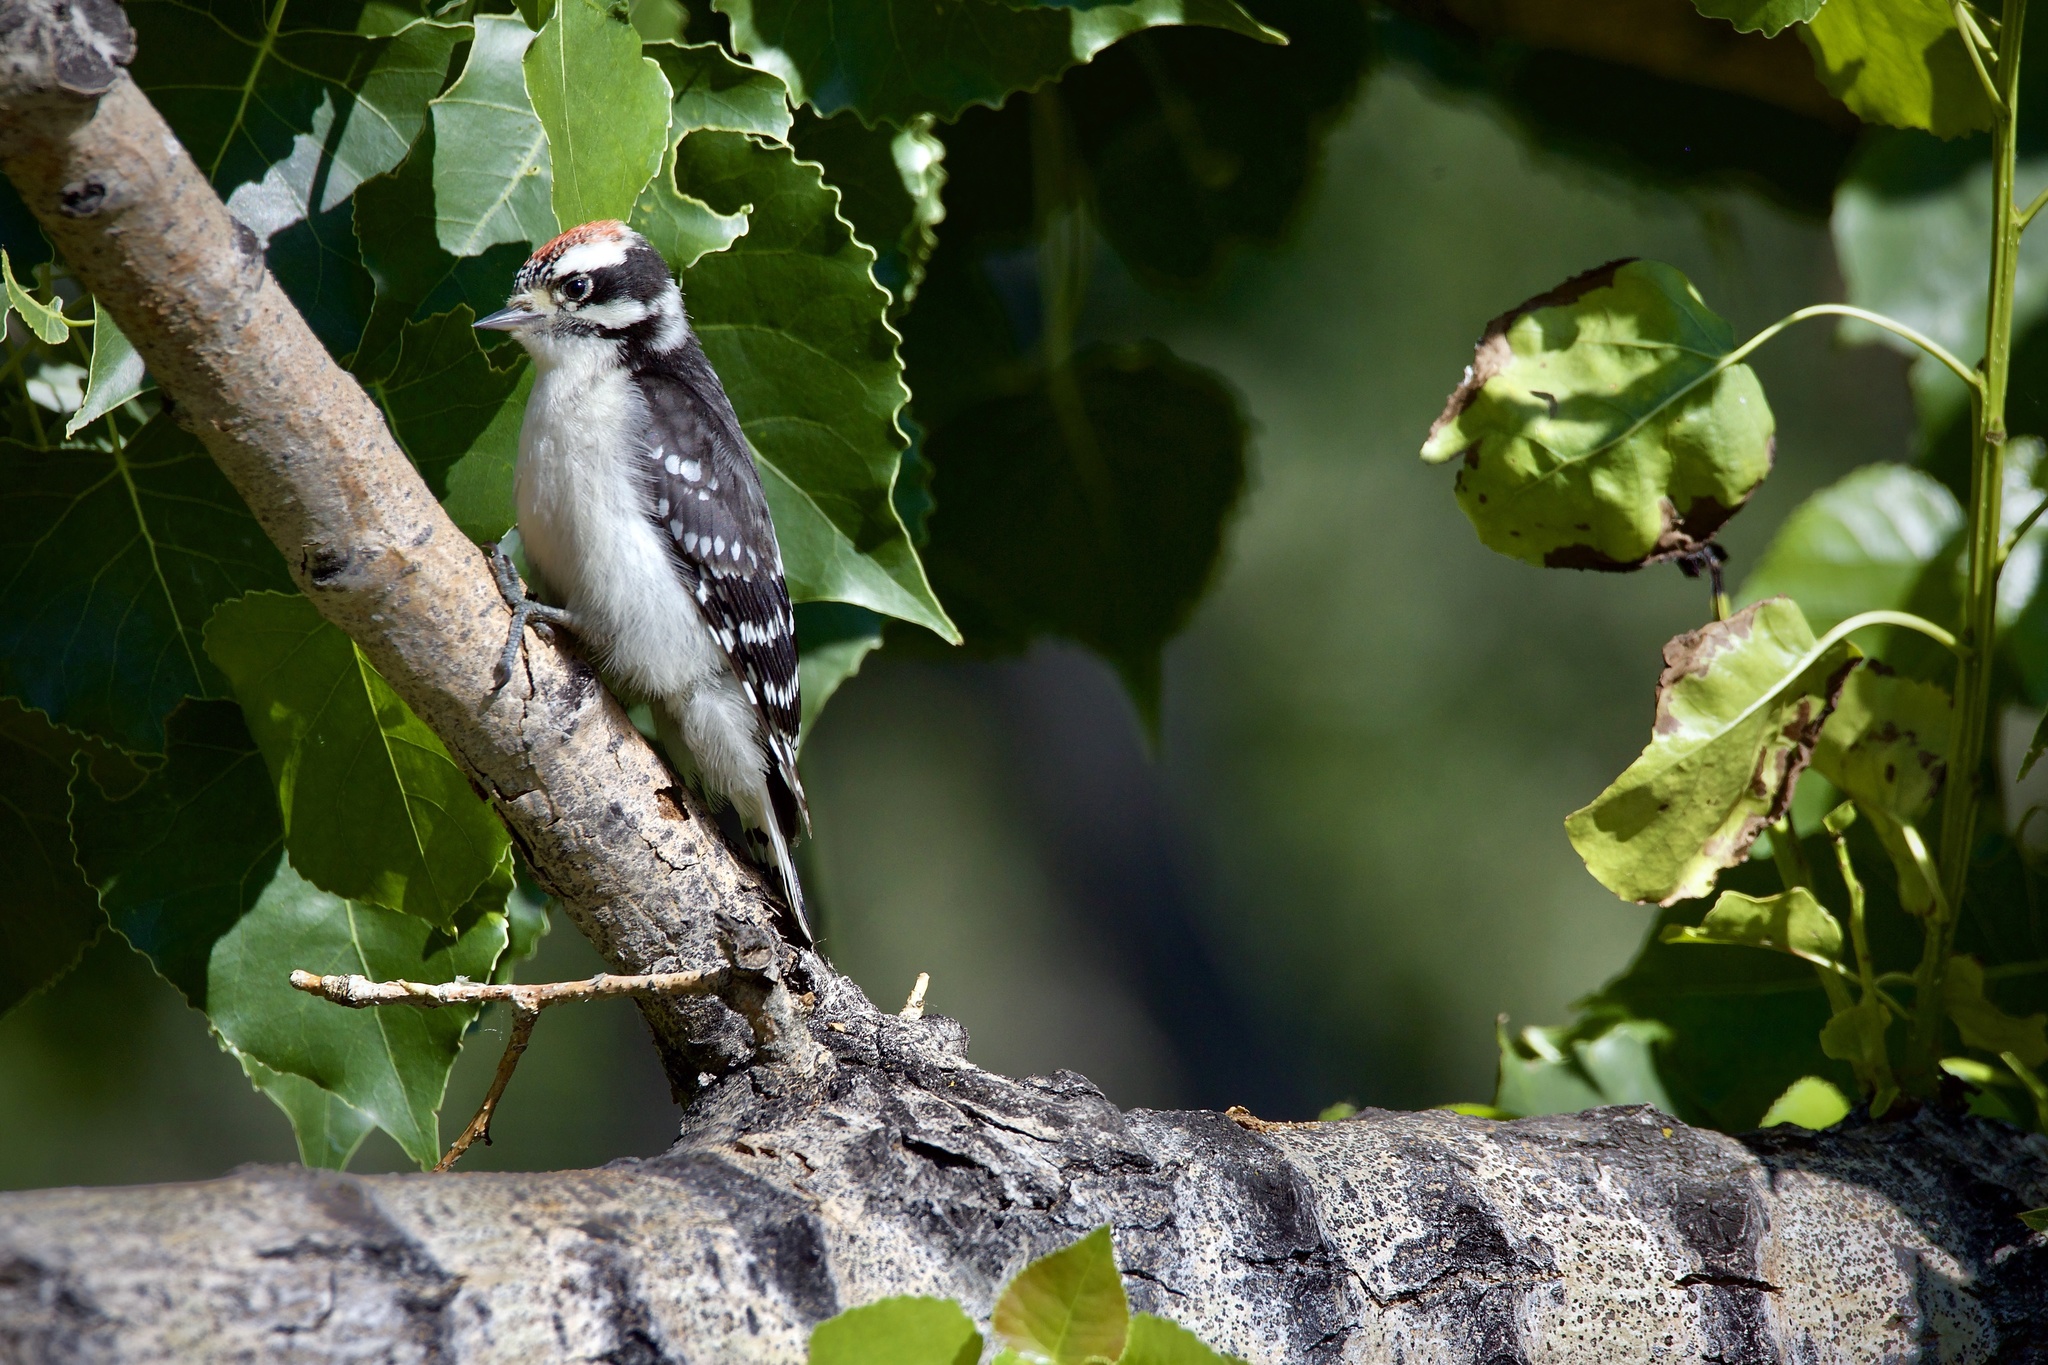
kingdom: Animalia
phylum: Chordata
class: Aves
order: Piciformes
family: Picidae
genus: Dryobates
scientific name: Dryobates pubescens
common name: Downy woodpecker
